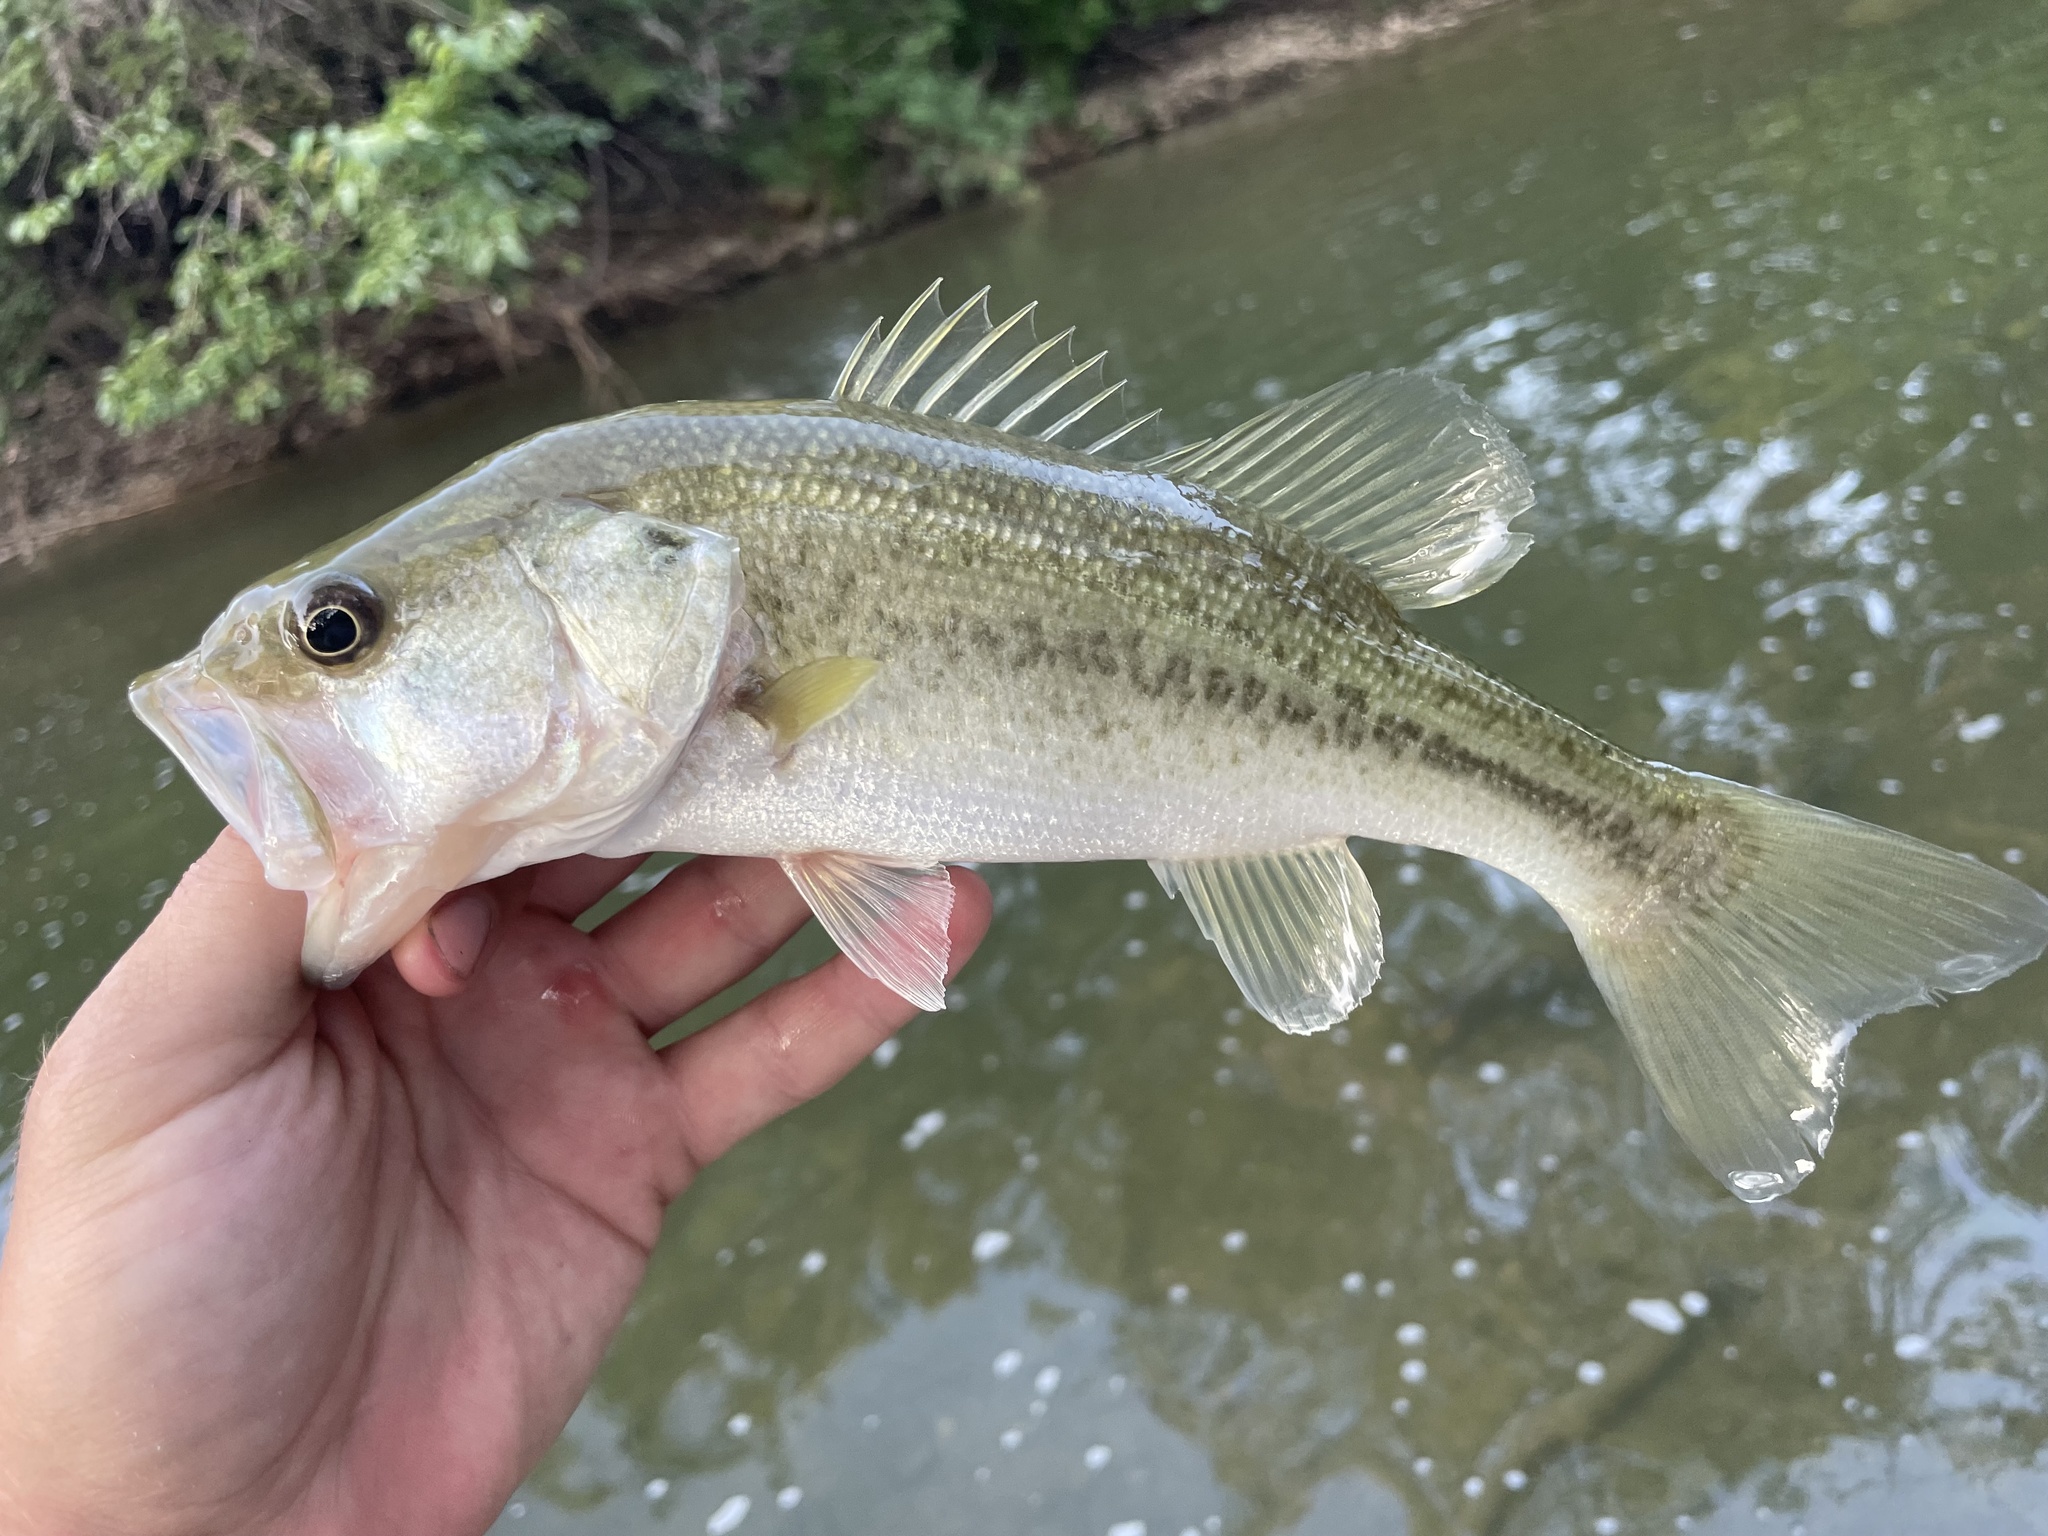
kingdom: Animalia
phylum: Chordata
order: Perciformes
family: Centrarchidae
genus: Micropterus
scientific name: Micropterus
